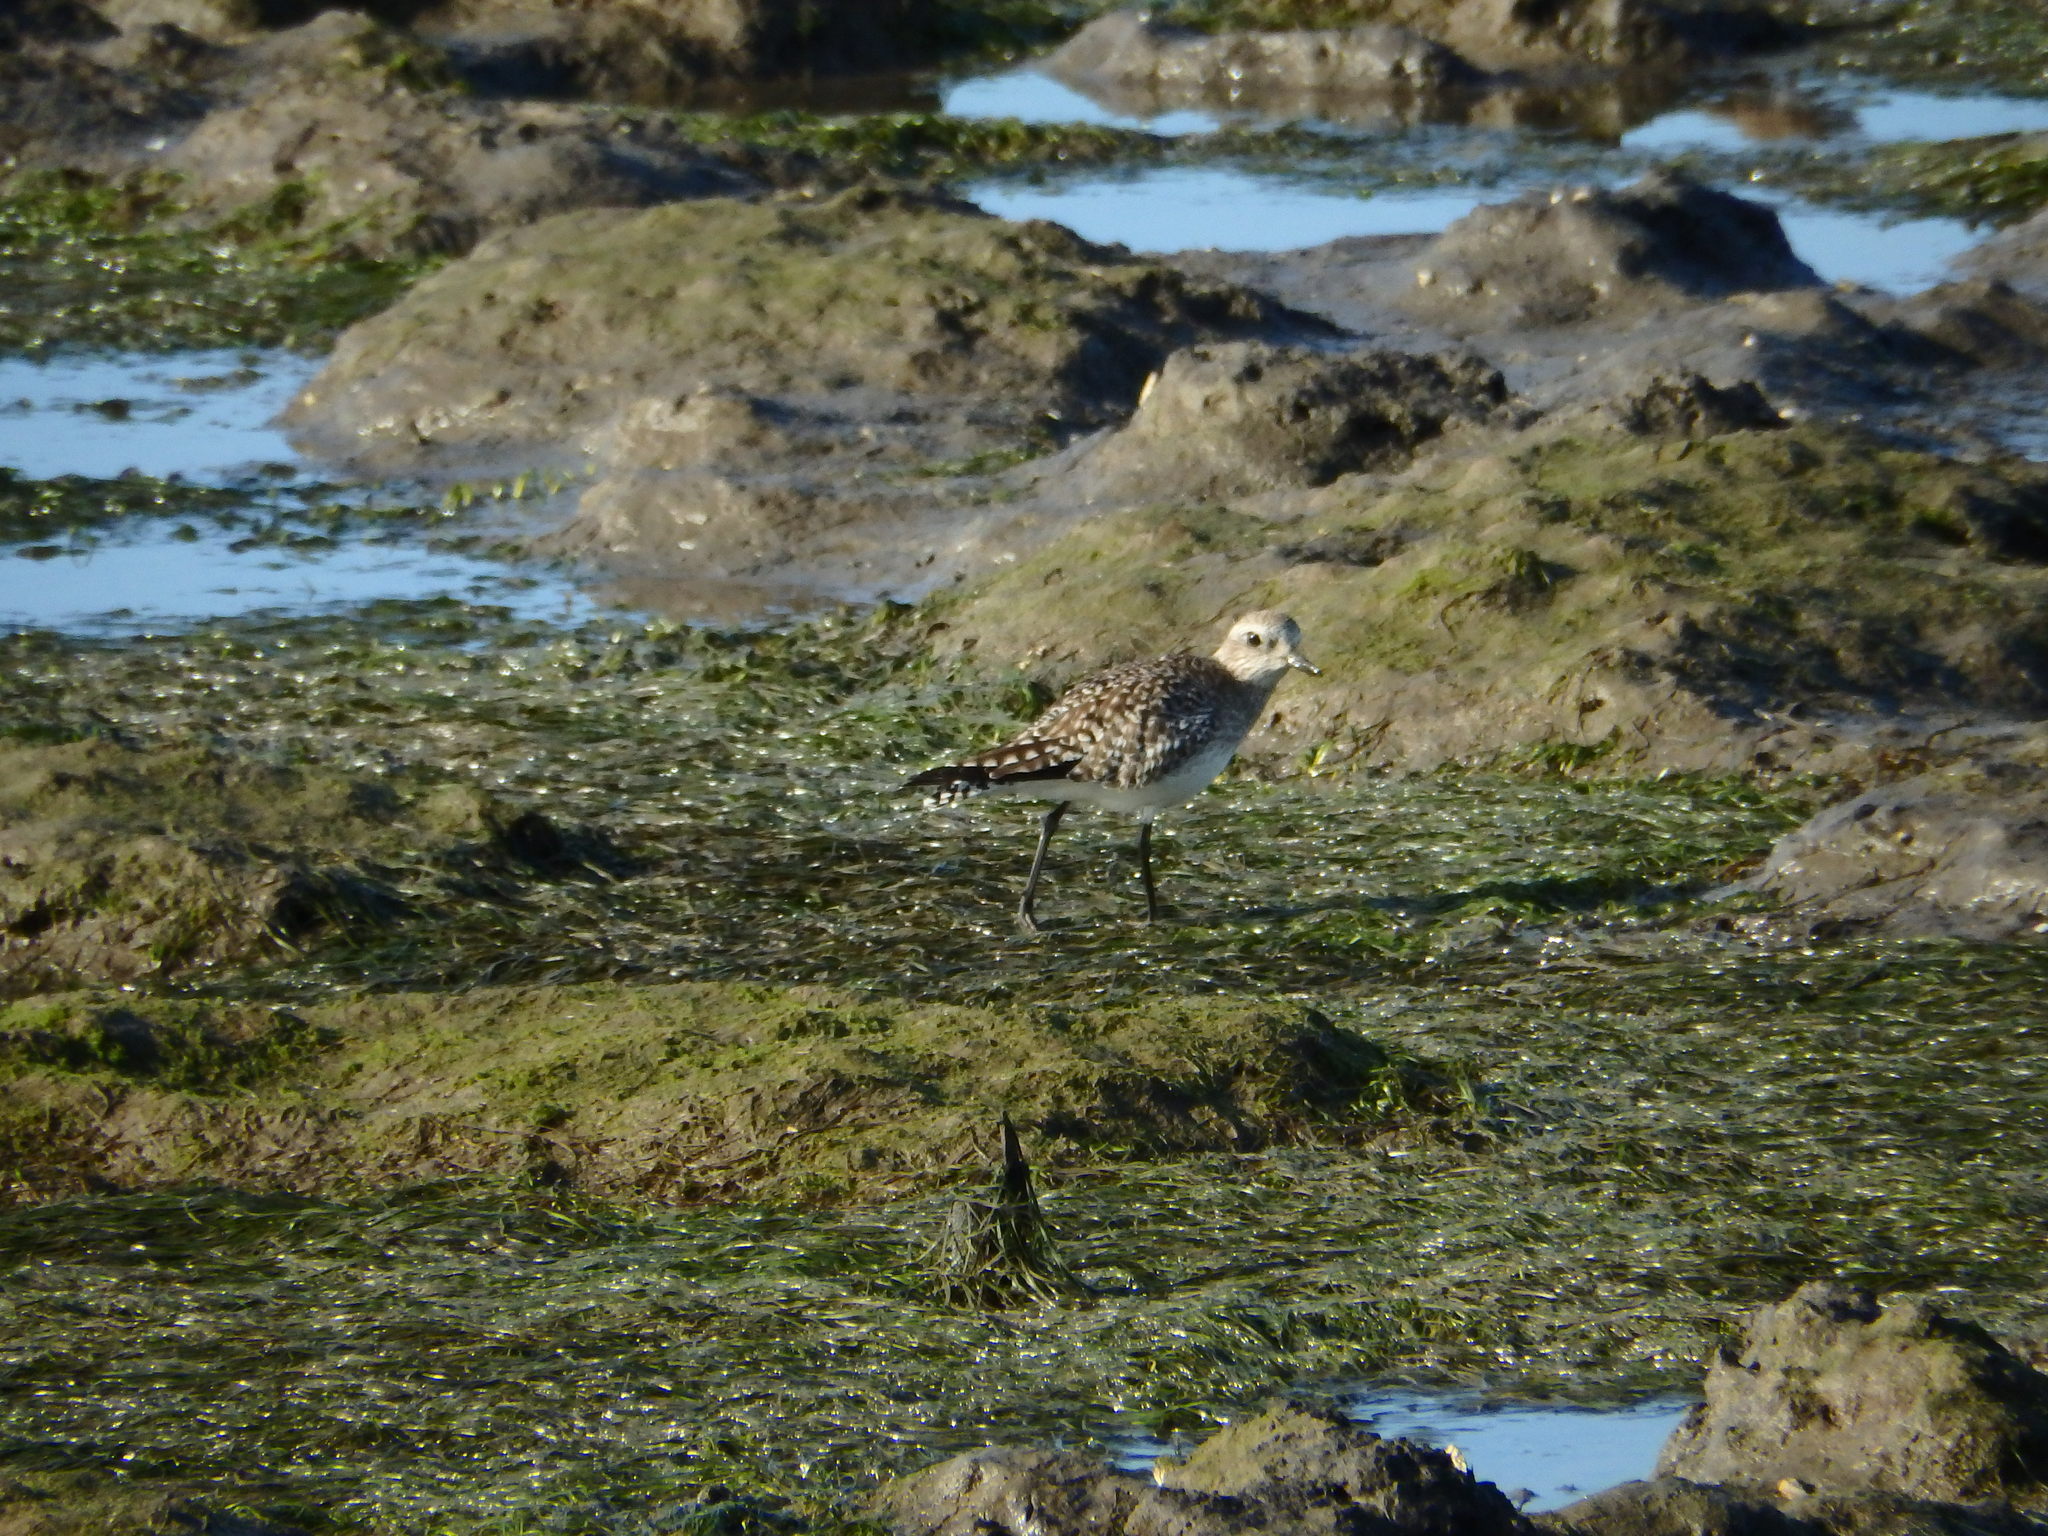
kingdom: Animalia
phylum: Chordata
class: Aves
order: Charadriiformes
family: Charadriidae
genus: Pluvialis
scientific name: Pluvialis squatarola
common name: Grey plover
